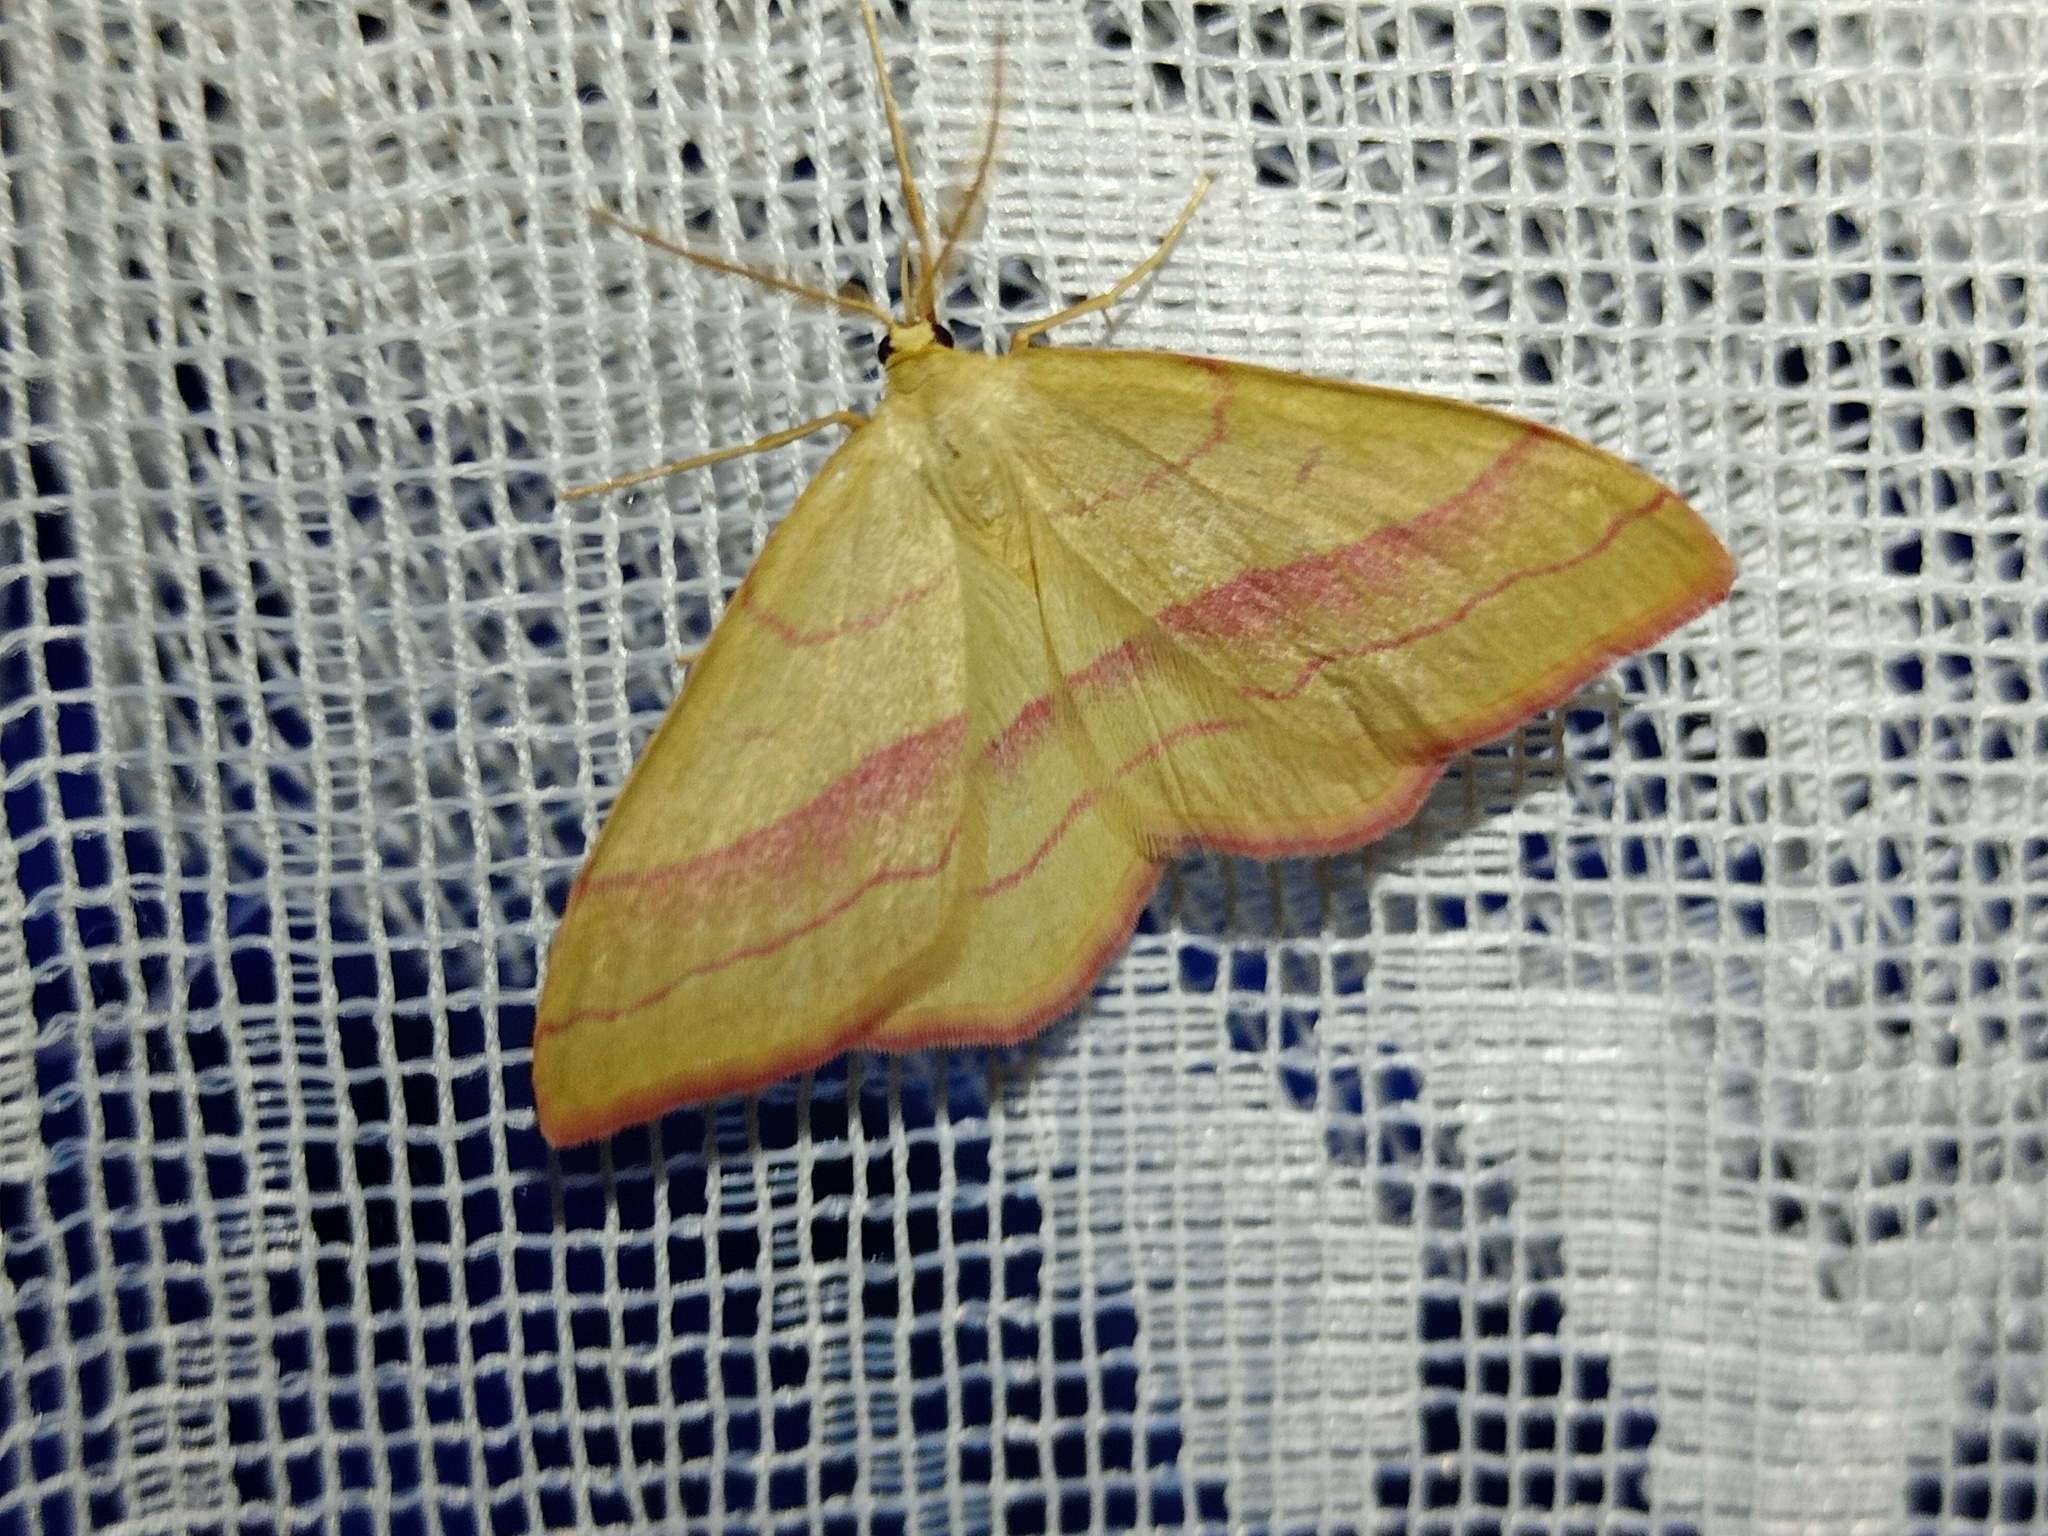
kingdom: Animalia
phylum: Arthropoda
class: Insecta
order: Lepidoptera
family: Geometridae
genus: Rhodostrophia
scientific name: Rhodostrophia vibicaria
